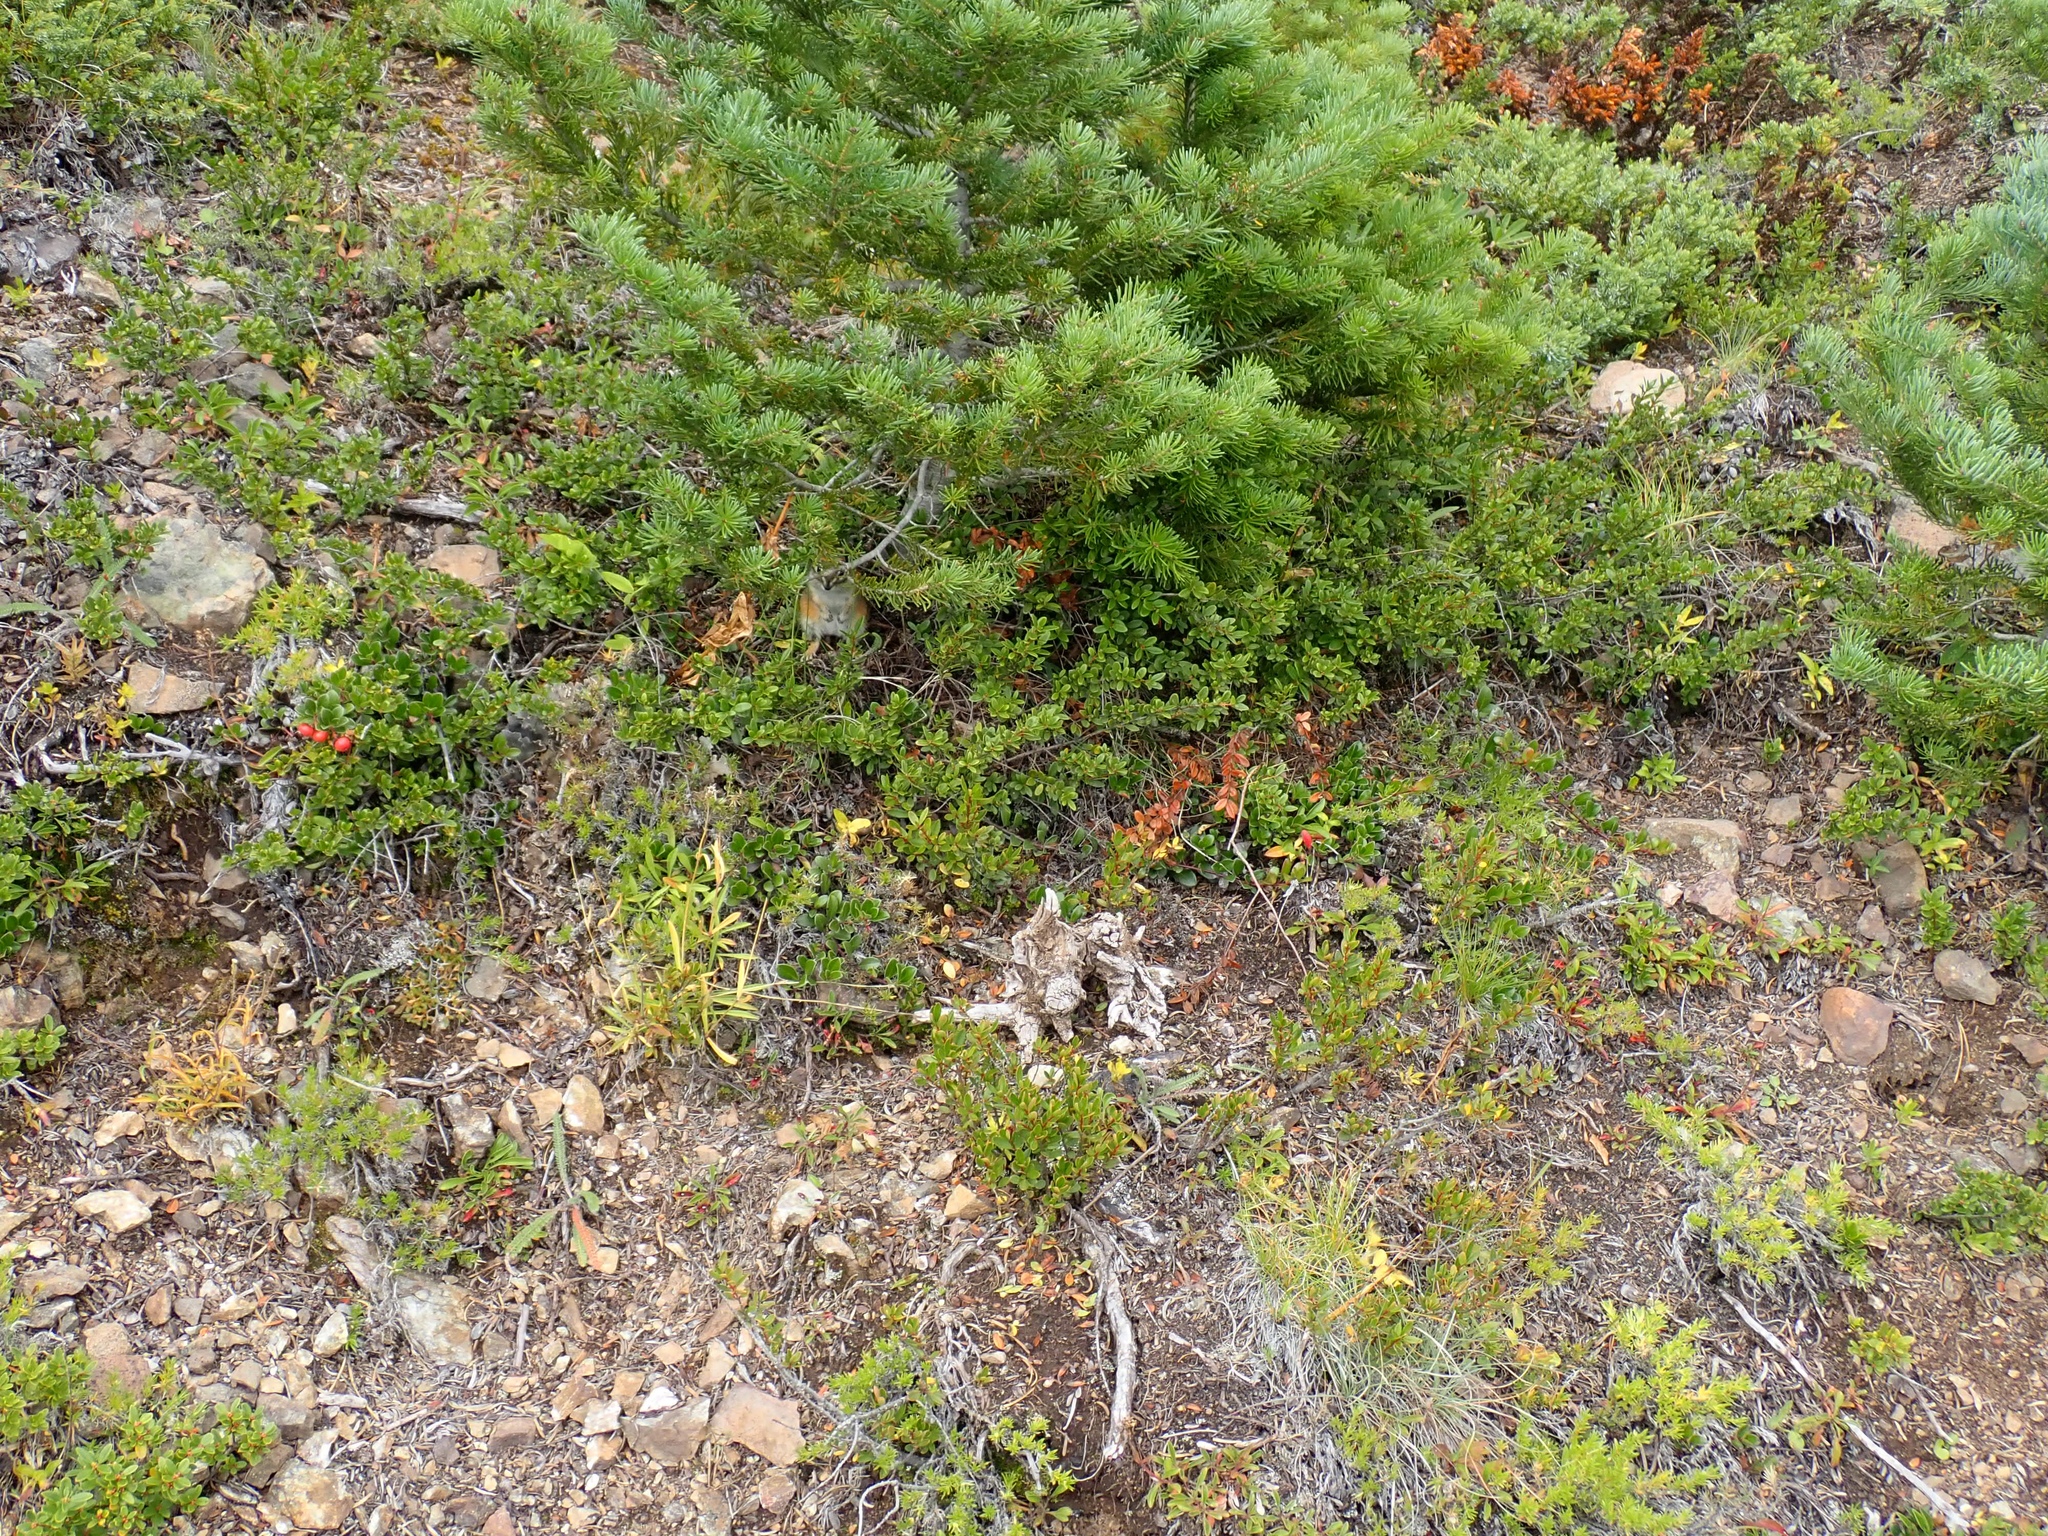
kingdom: Animalia
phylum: Chordata
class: Mammalia
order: Rodentia
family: Sciuridae
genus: Tamias
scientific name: Tamias amoenus
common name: Yellow-pine chipmunk
